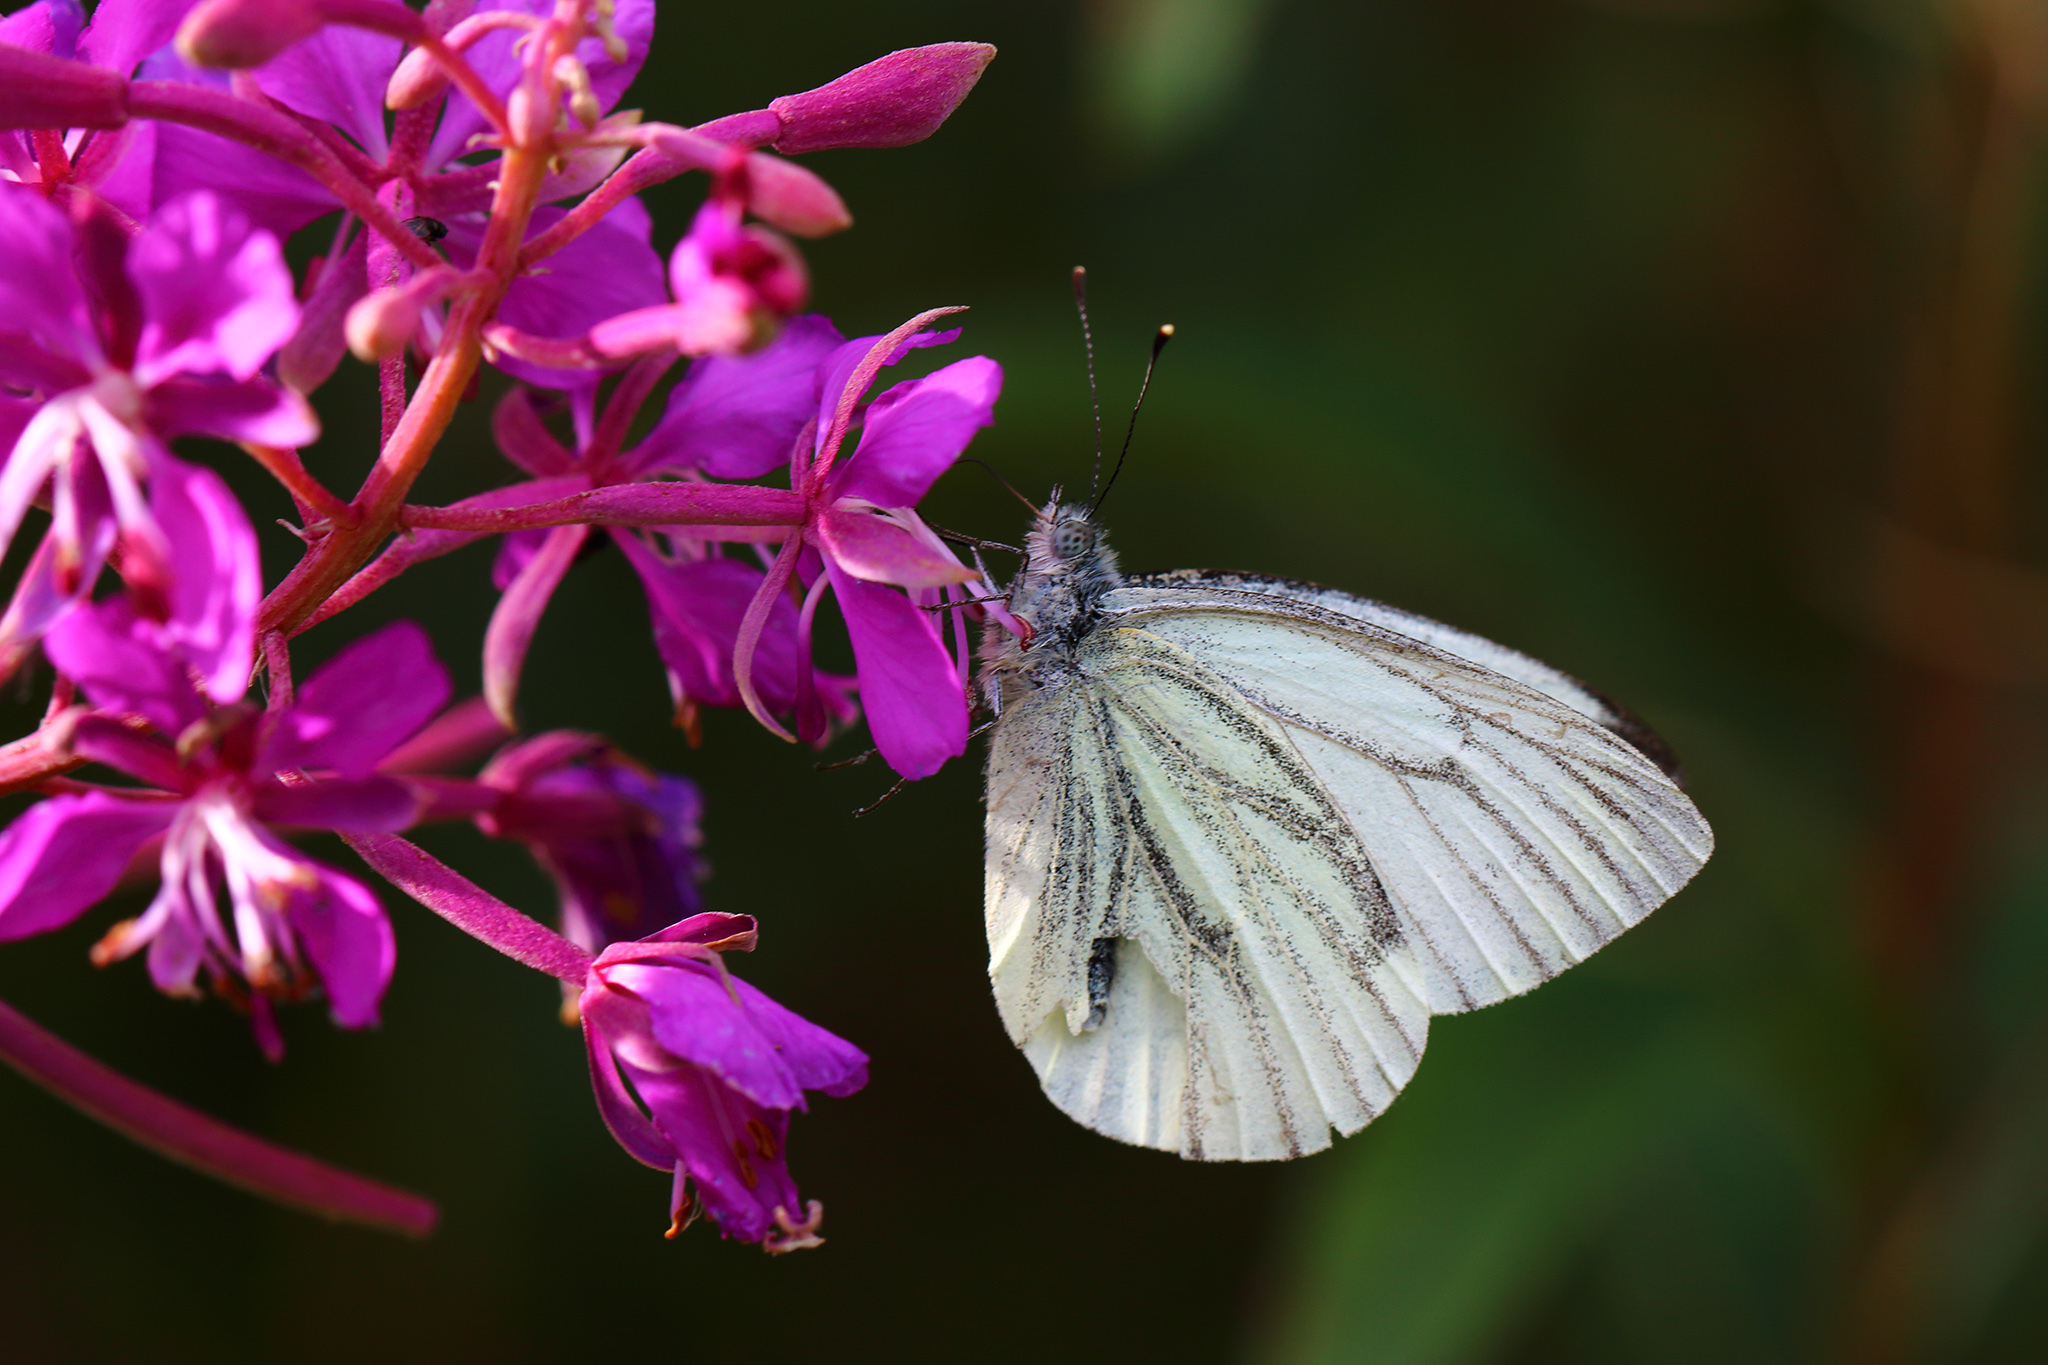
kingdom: Animalia
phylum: Arthropoda
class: Insecta
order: Lepidoptera
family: Pieridae
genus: Pieris
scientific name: Pieris napi
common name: Green-veined white
